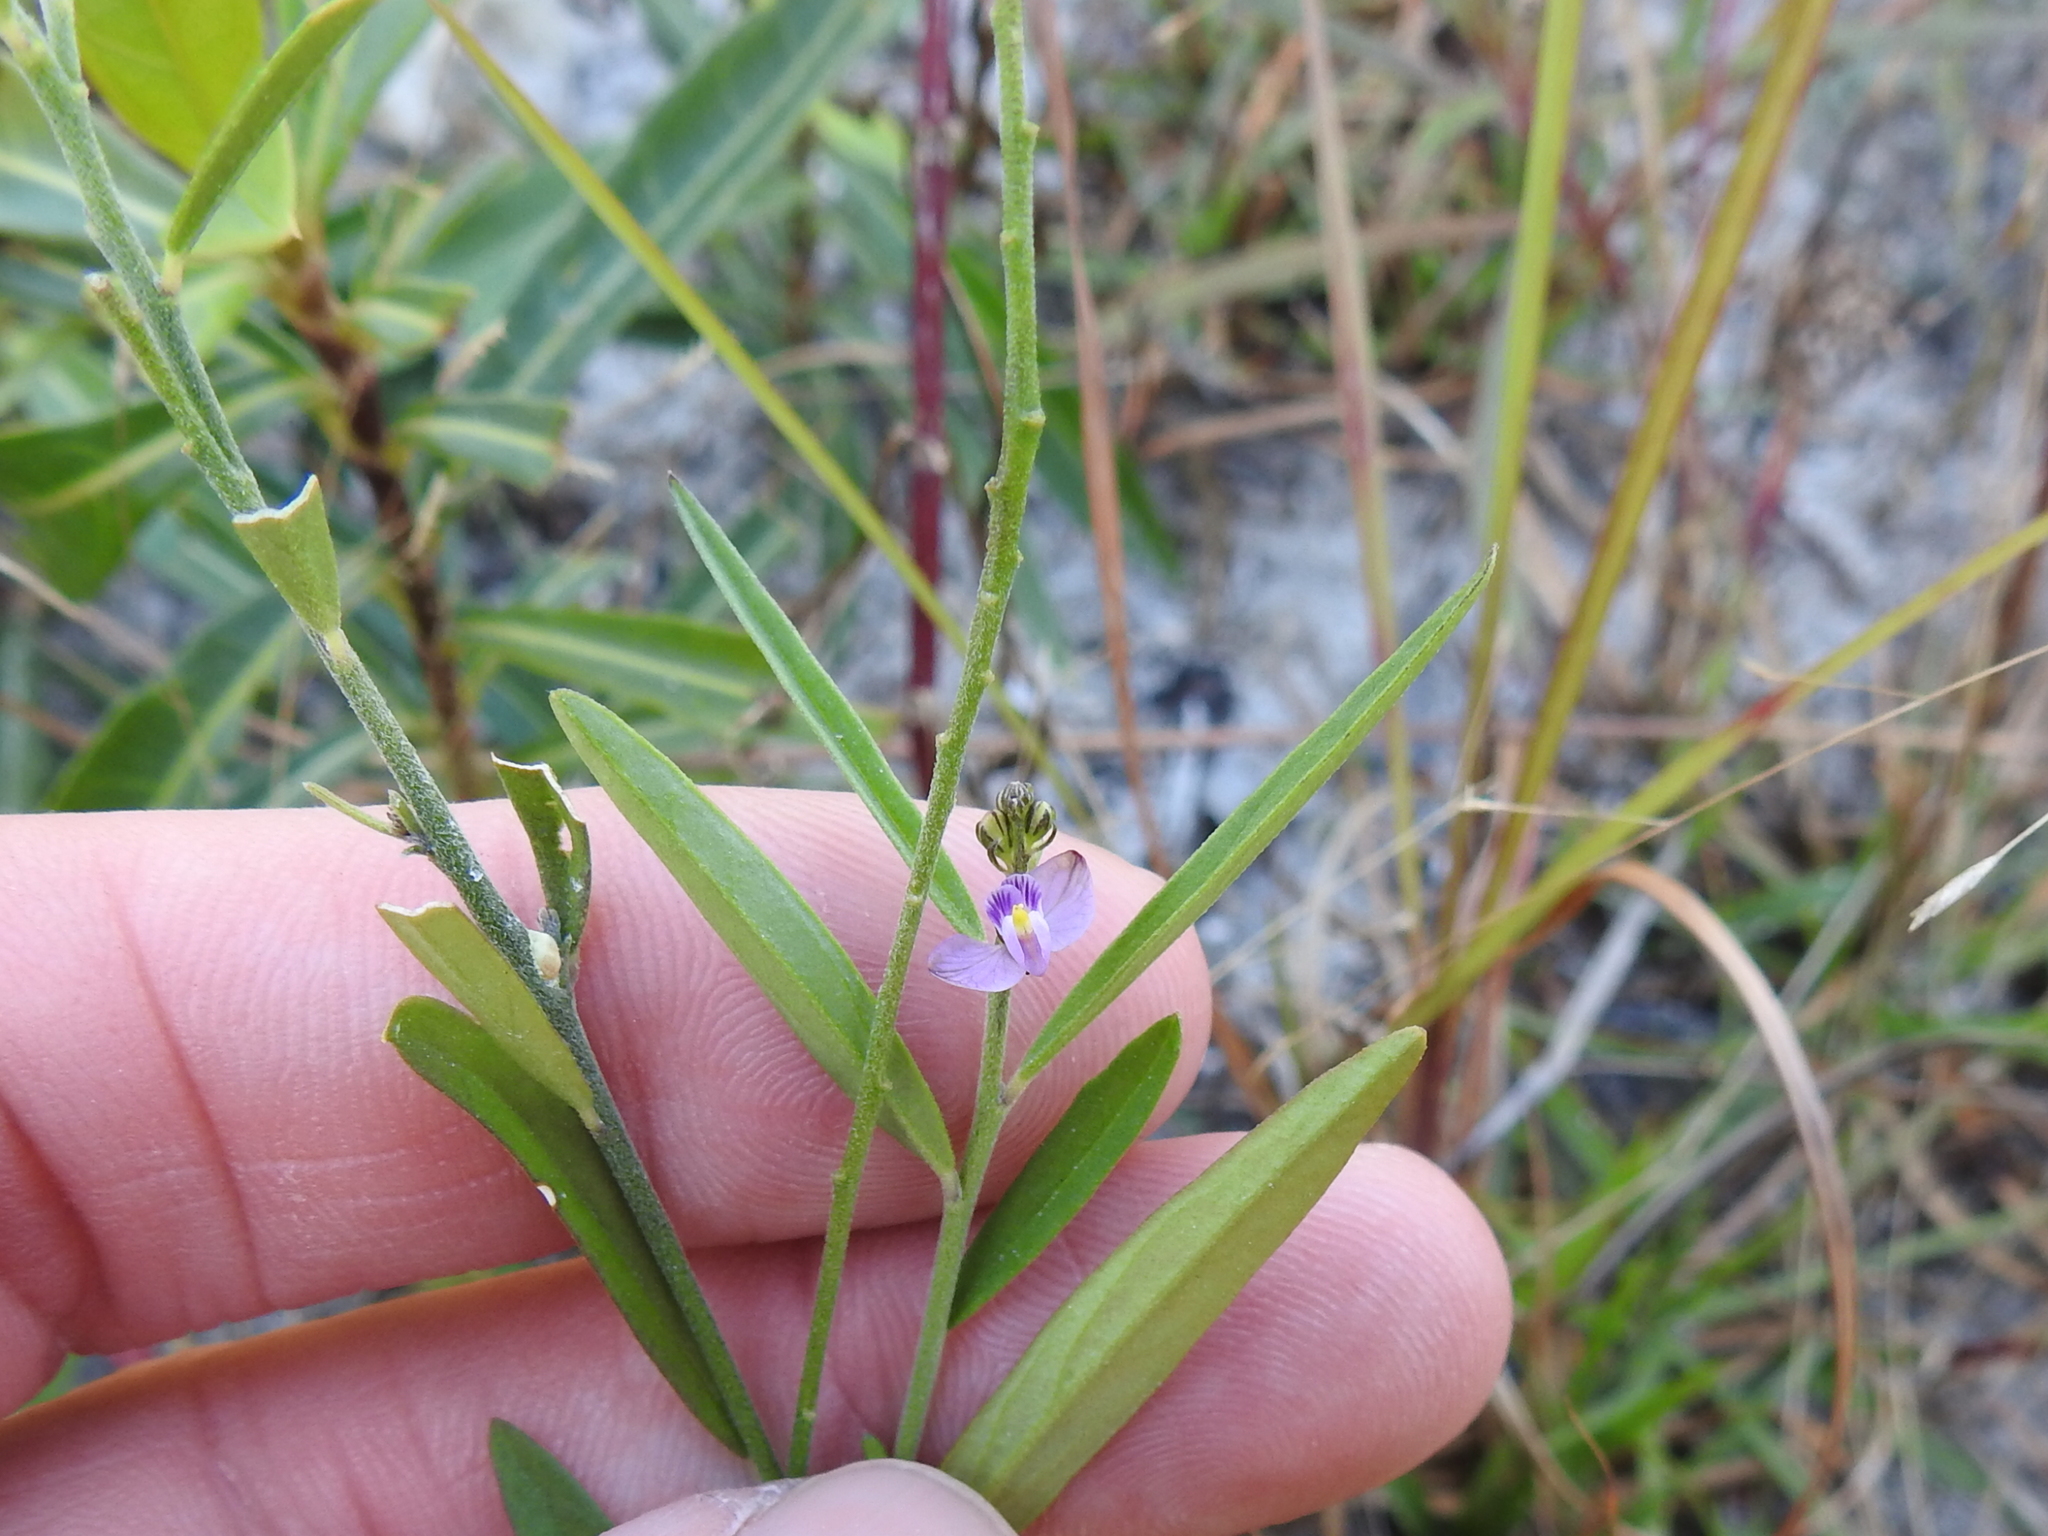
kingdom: Plantae
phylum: Tracheophyta
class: Magnoliopsida
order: Fabales
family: Polygalaceae
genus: Asemeia
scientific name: Asemeia grandiflora
